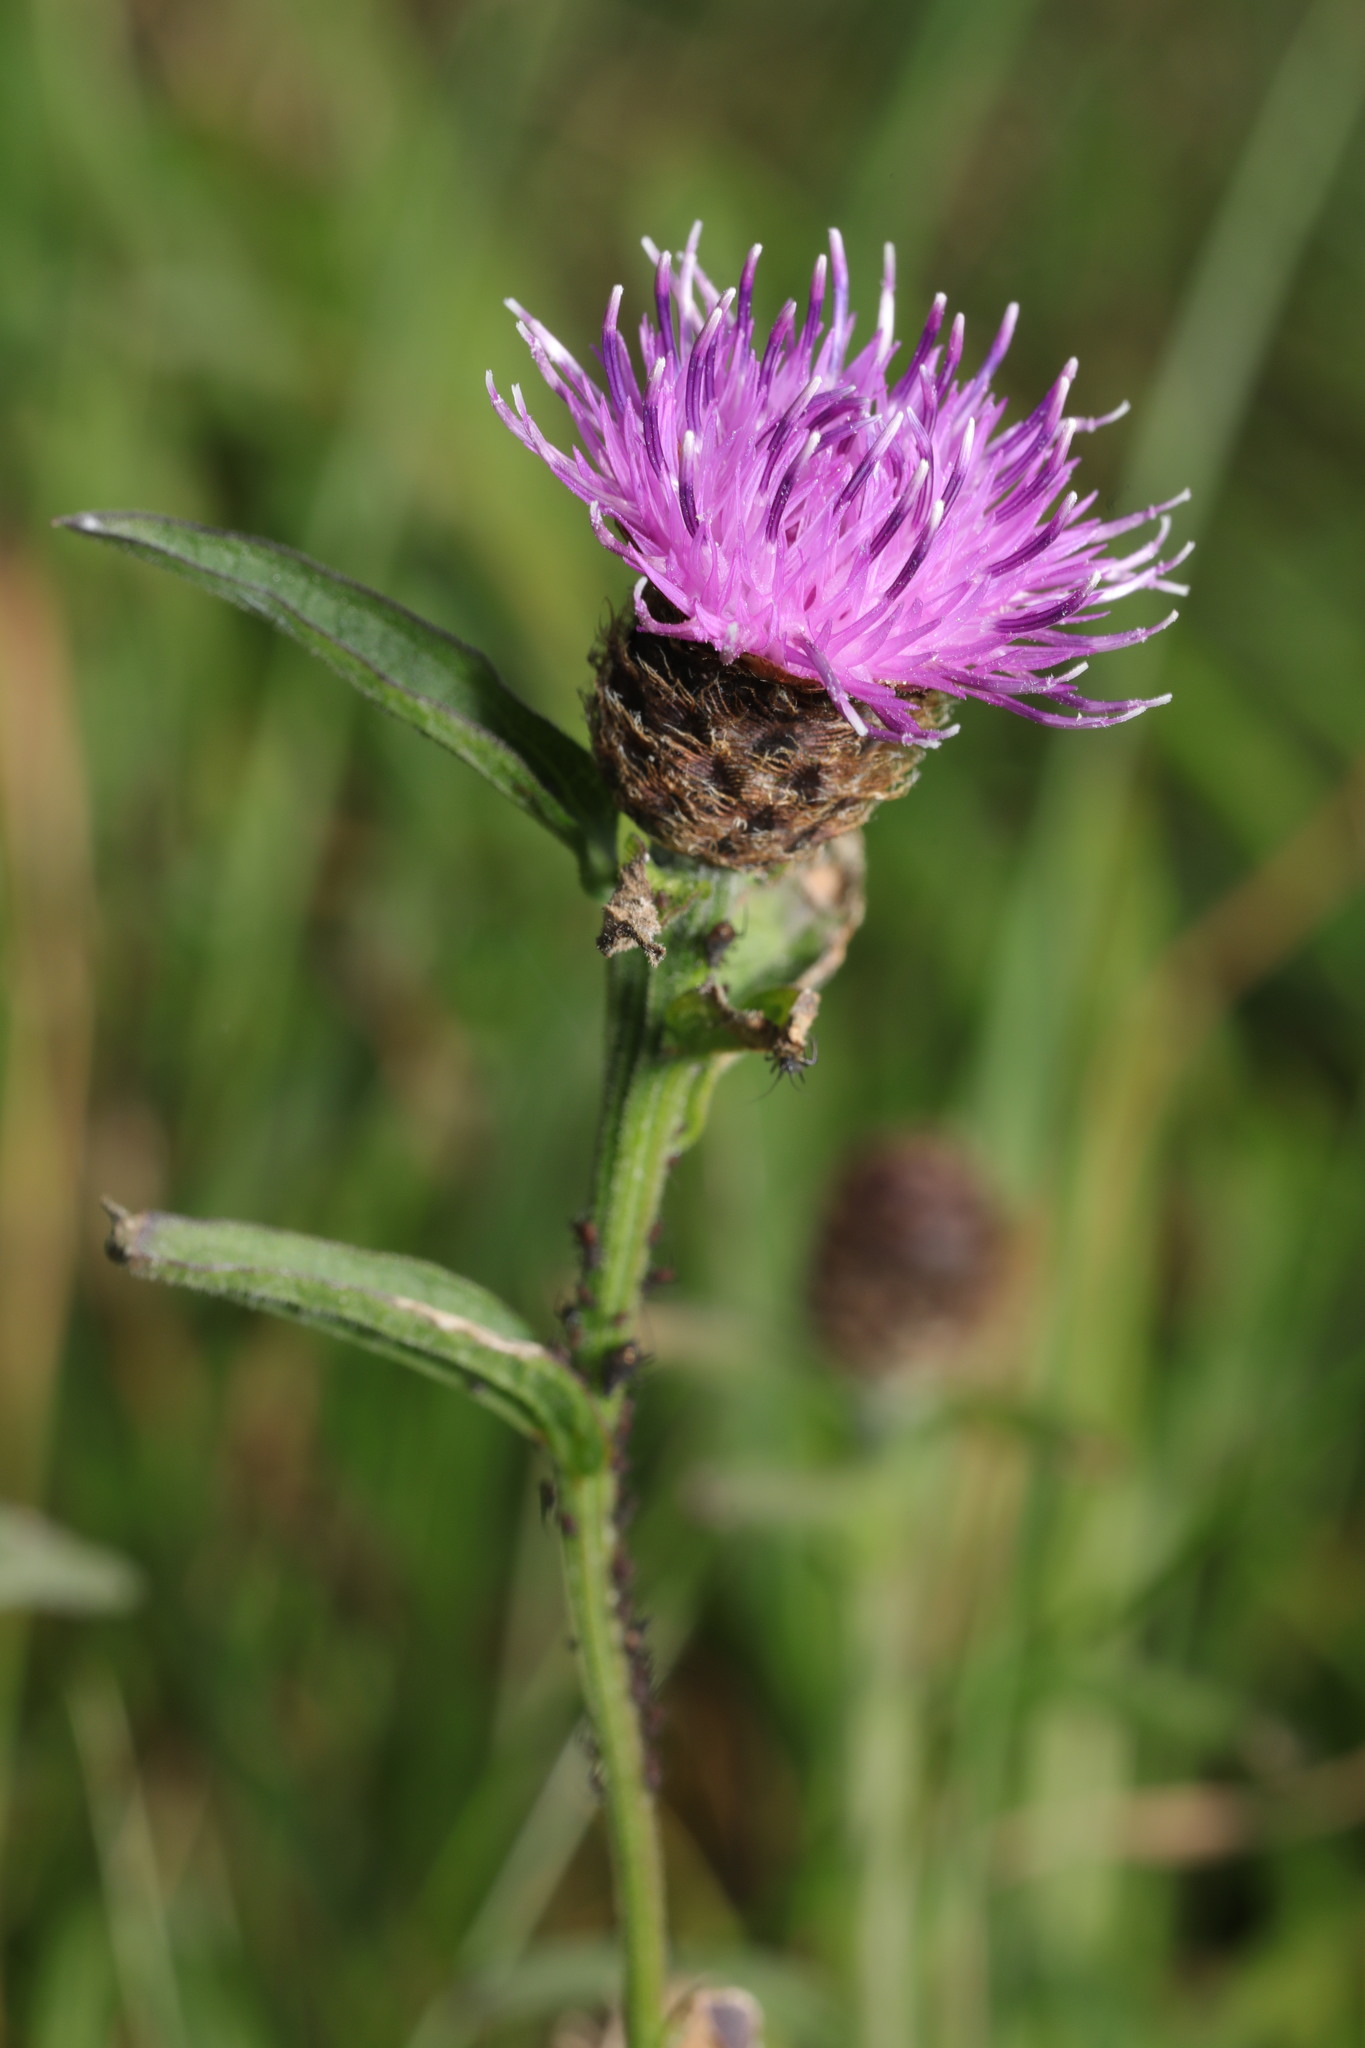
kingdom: Plantae
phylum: Tracheophyta
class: Magnoliopsida
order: Asterales
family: Asteraceae
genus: Centaurea
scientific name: Centaurea nigra
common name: Lesser knapweed
